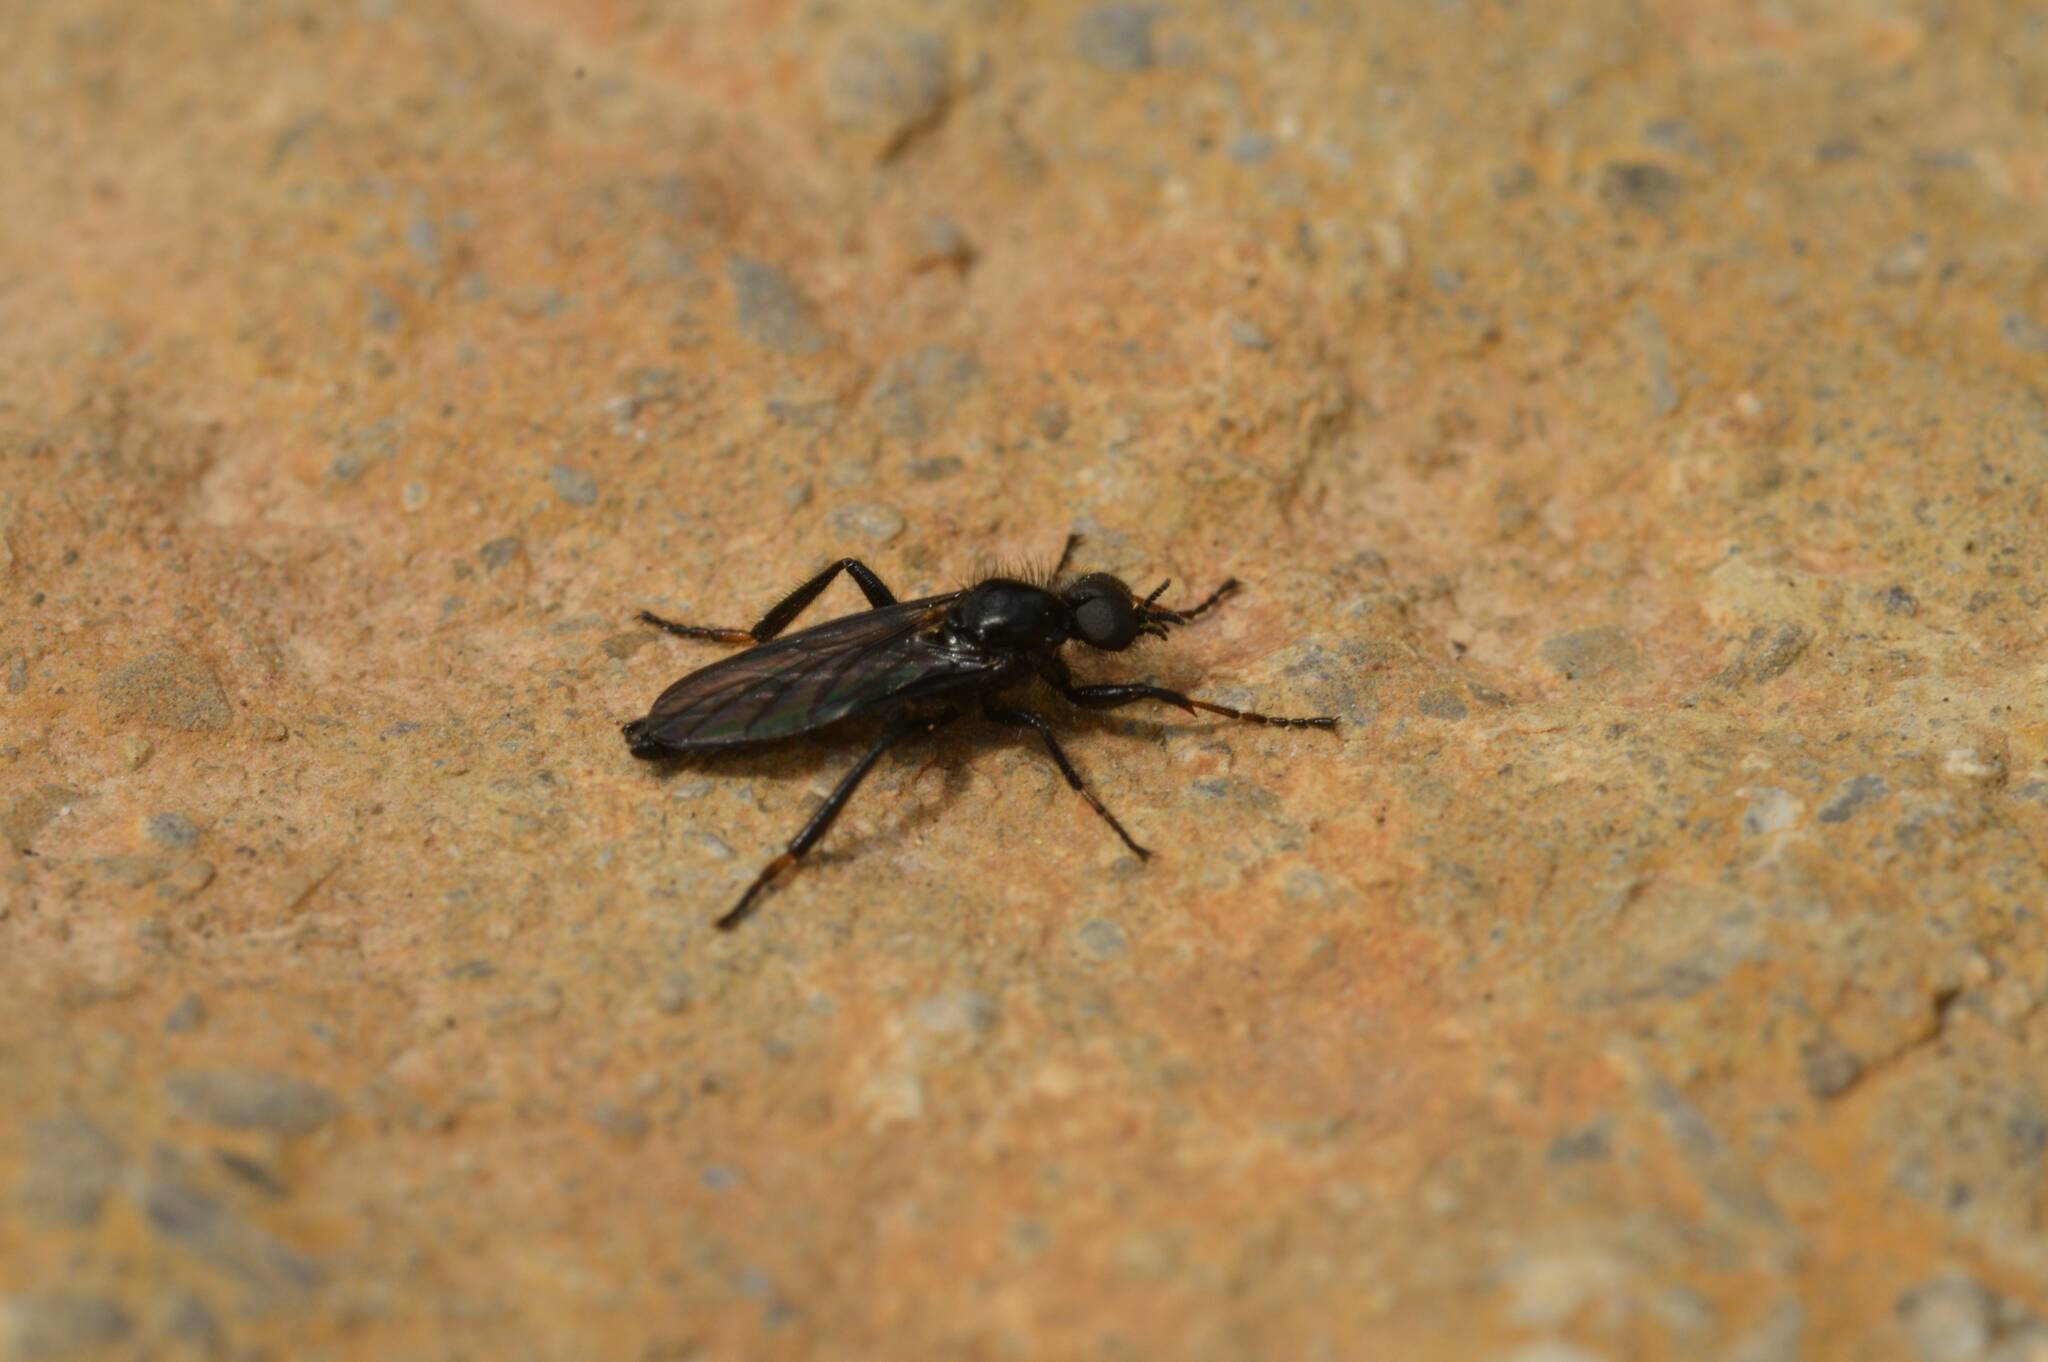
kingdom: Animalia
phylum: Arthropoda
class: Insecta
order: Diptera
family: Bibionidae
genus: Bibio
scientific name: Bibio marci
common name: St marks fly
